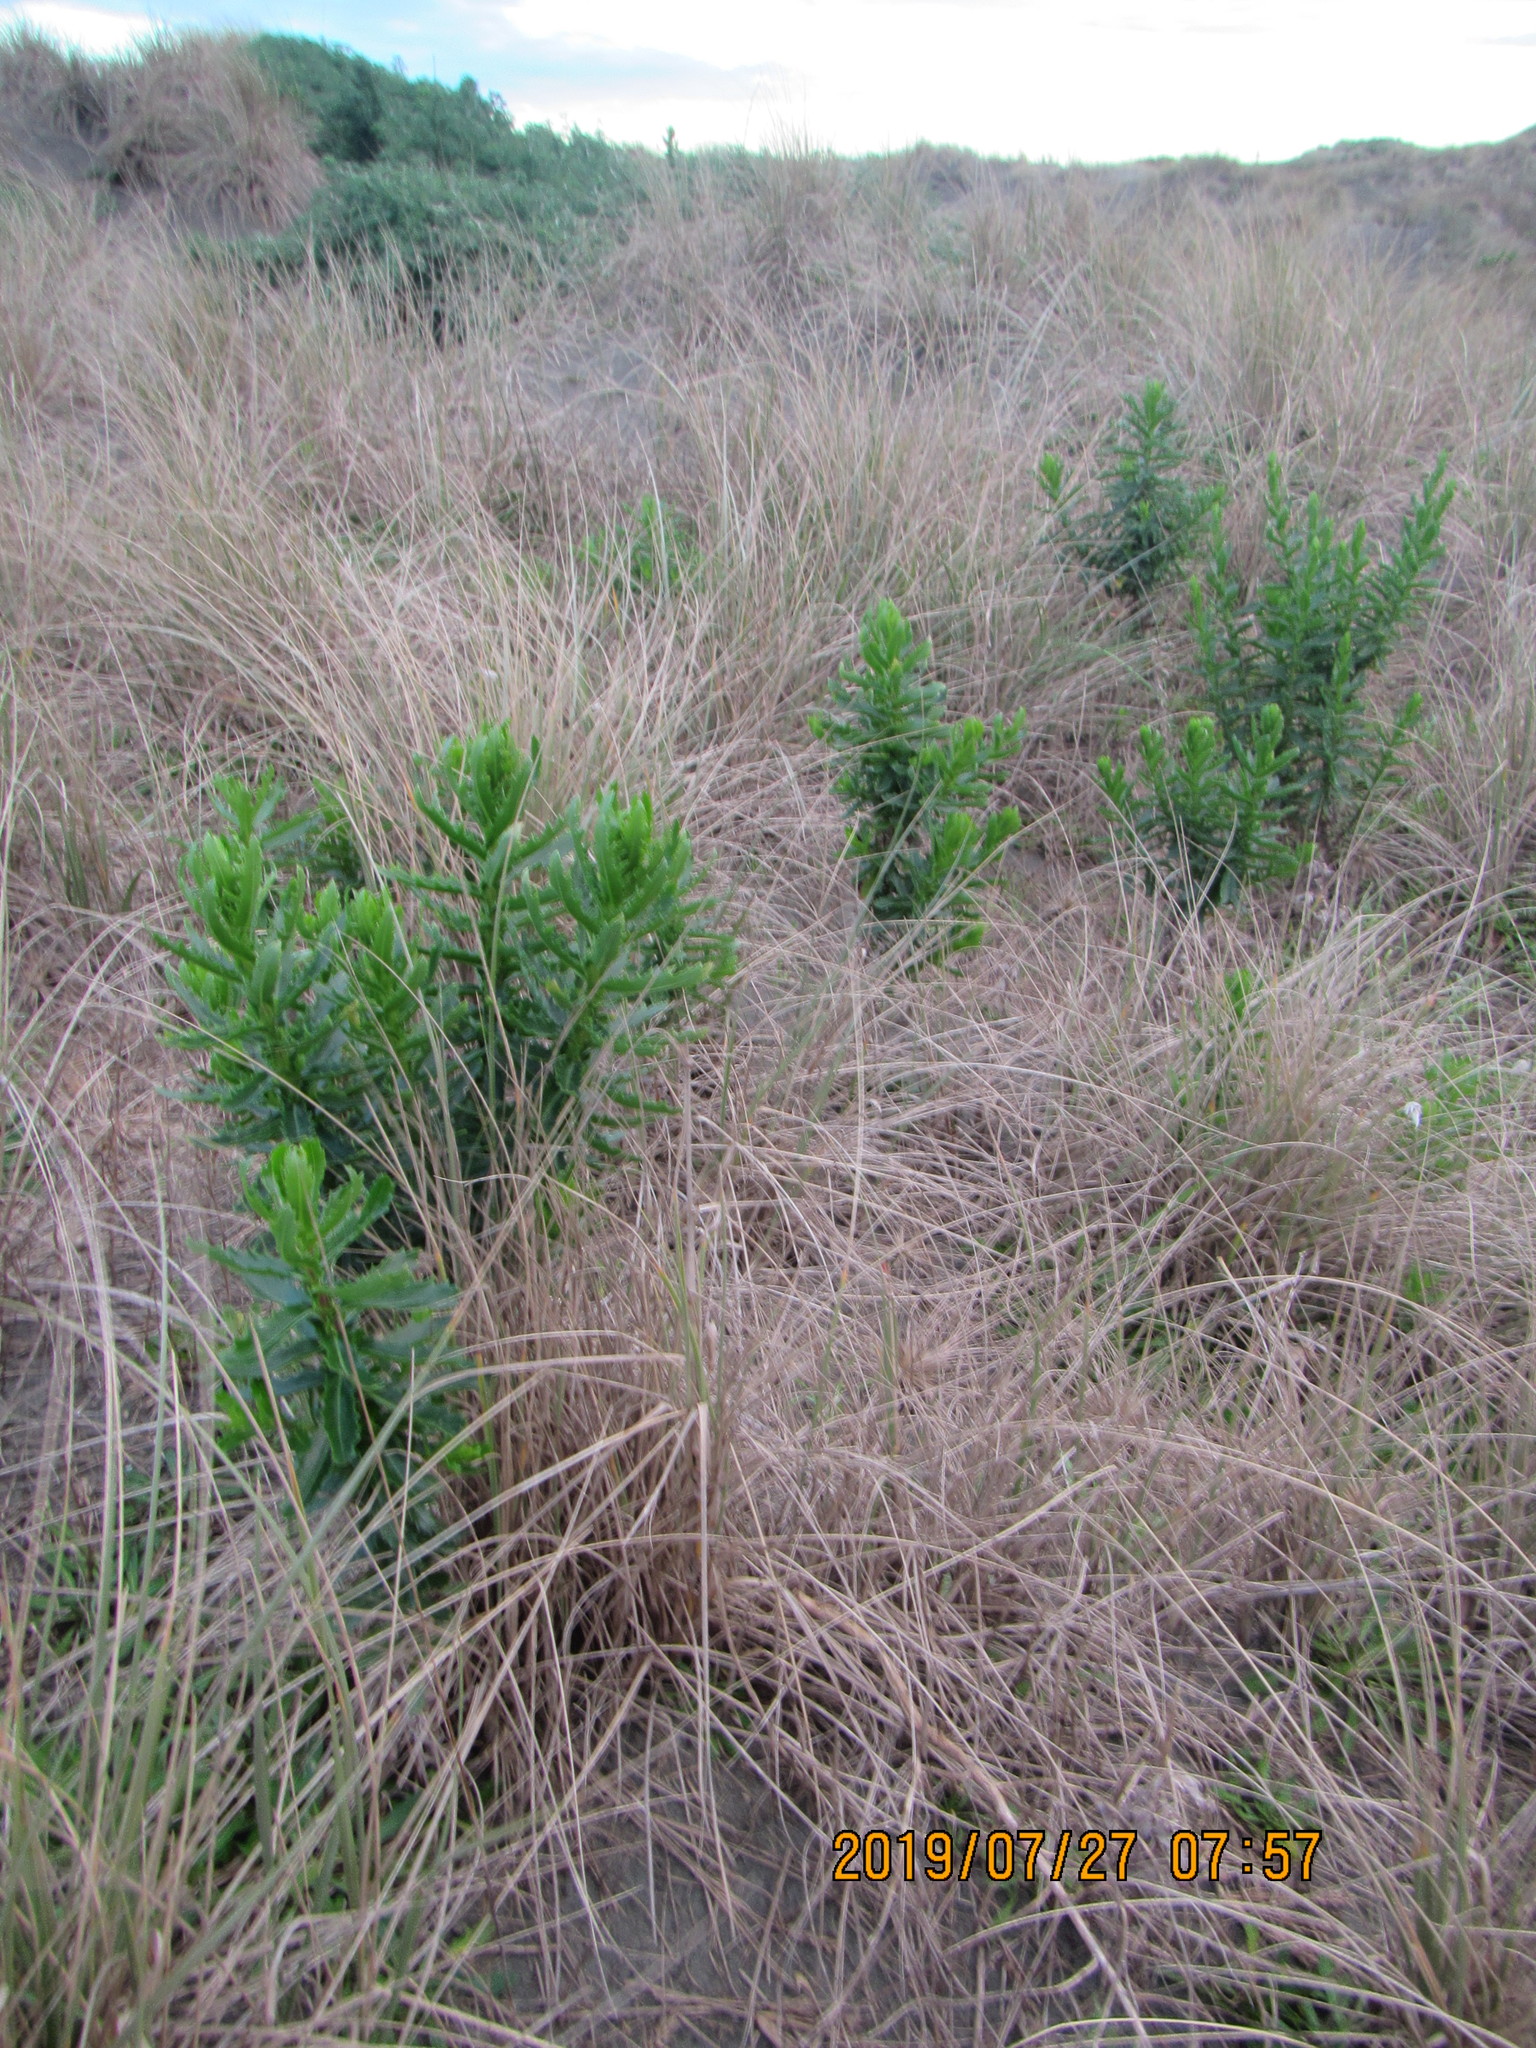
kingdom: Plantae
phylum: Tracheophyta
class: Magnoliopsida
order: Asterales
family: Asteraceae
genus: Senecio
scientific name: Senecio glastifolius
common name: Woad-leaved ragwort
